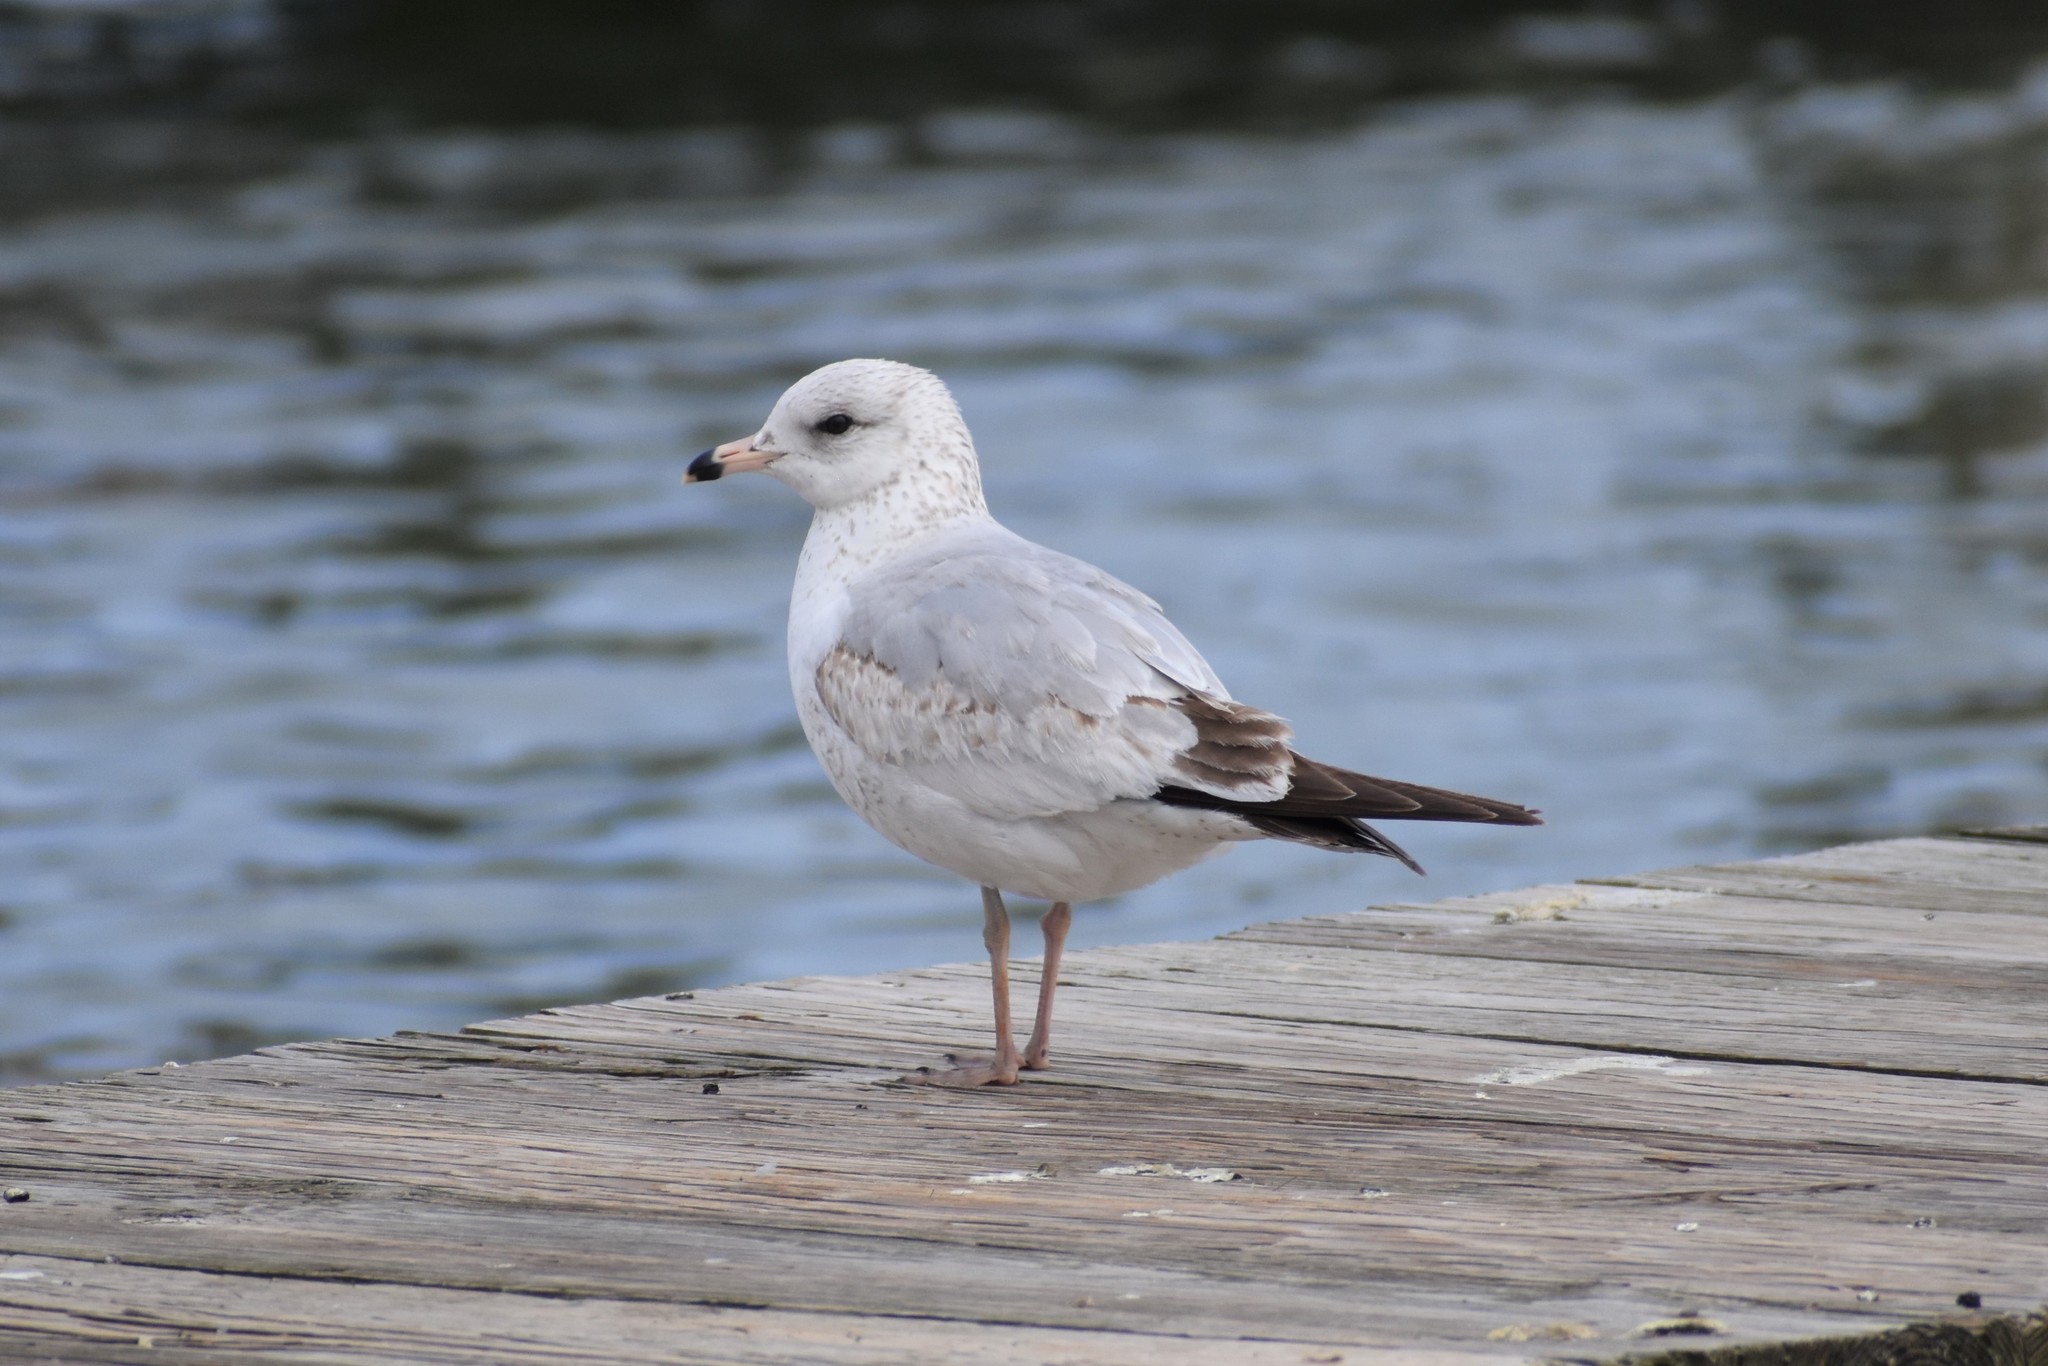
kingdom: Animalia
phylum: Chordata
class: Aves
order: Charadriiformes
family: Laridae
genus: Larus
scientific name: Larus delawarensis
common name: Ring-billed gull
